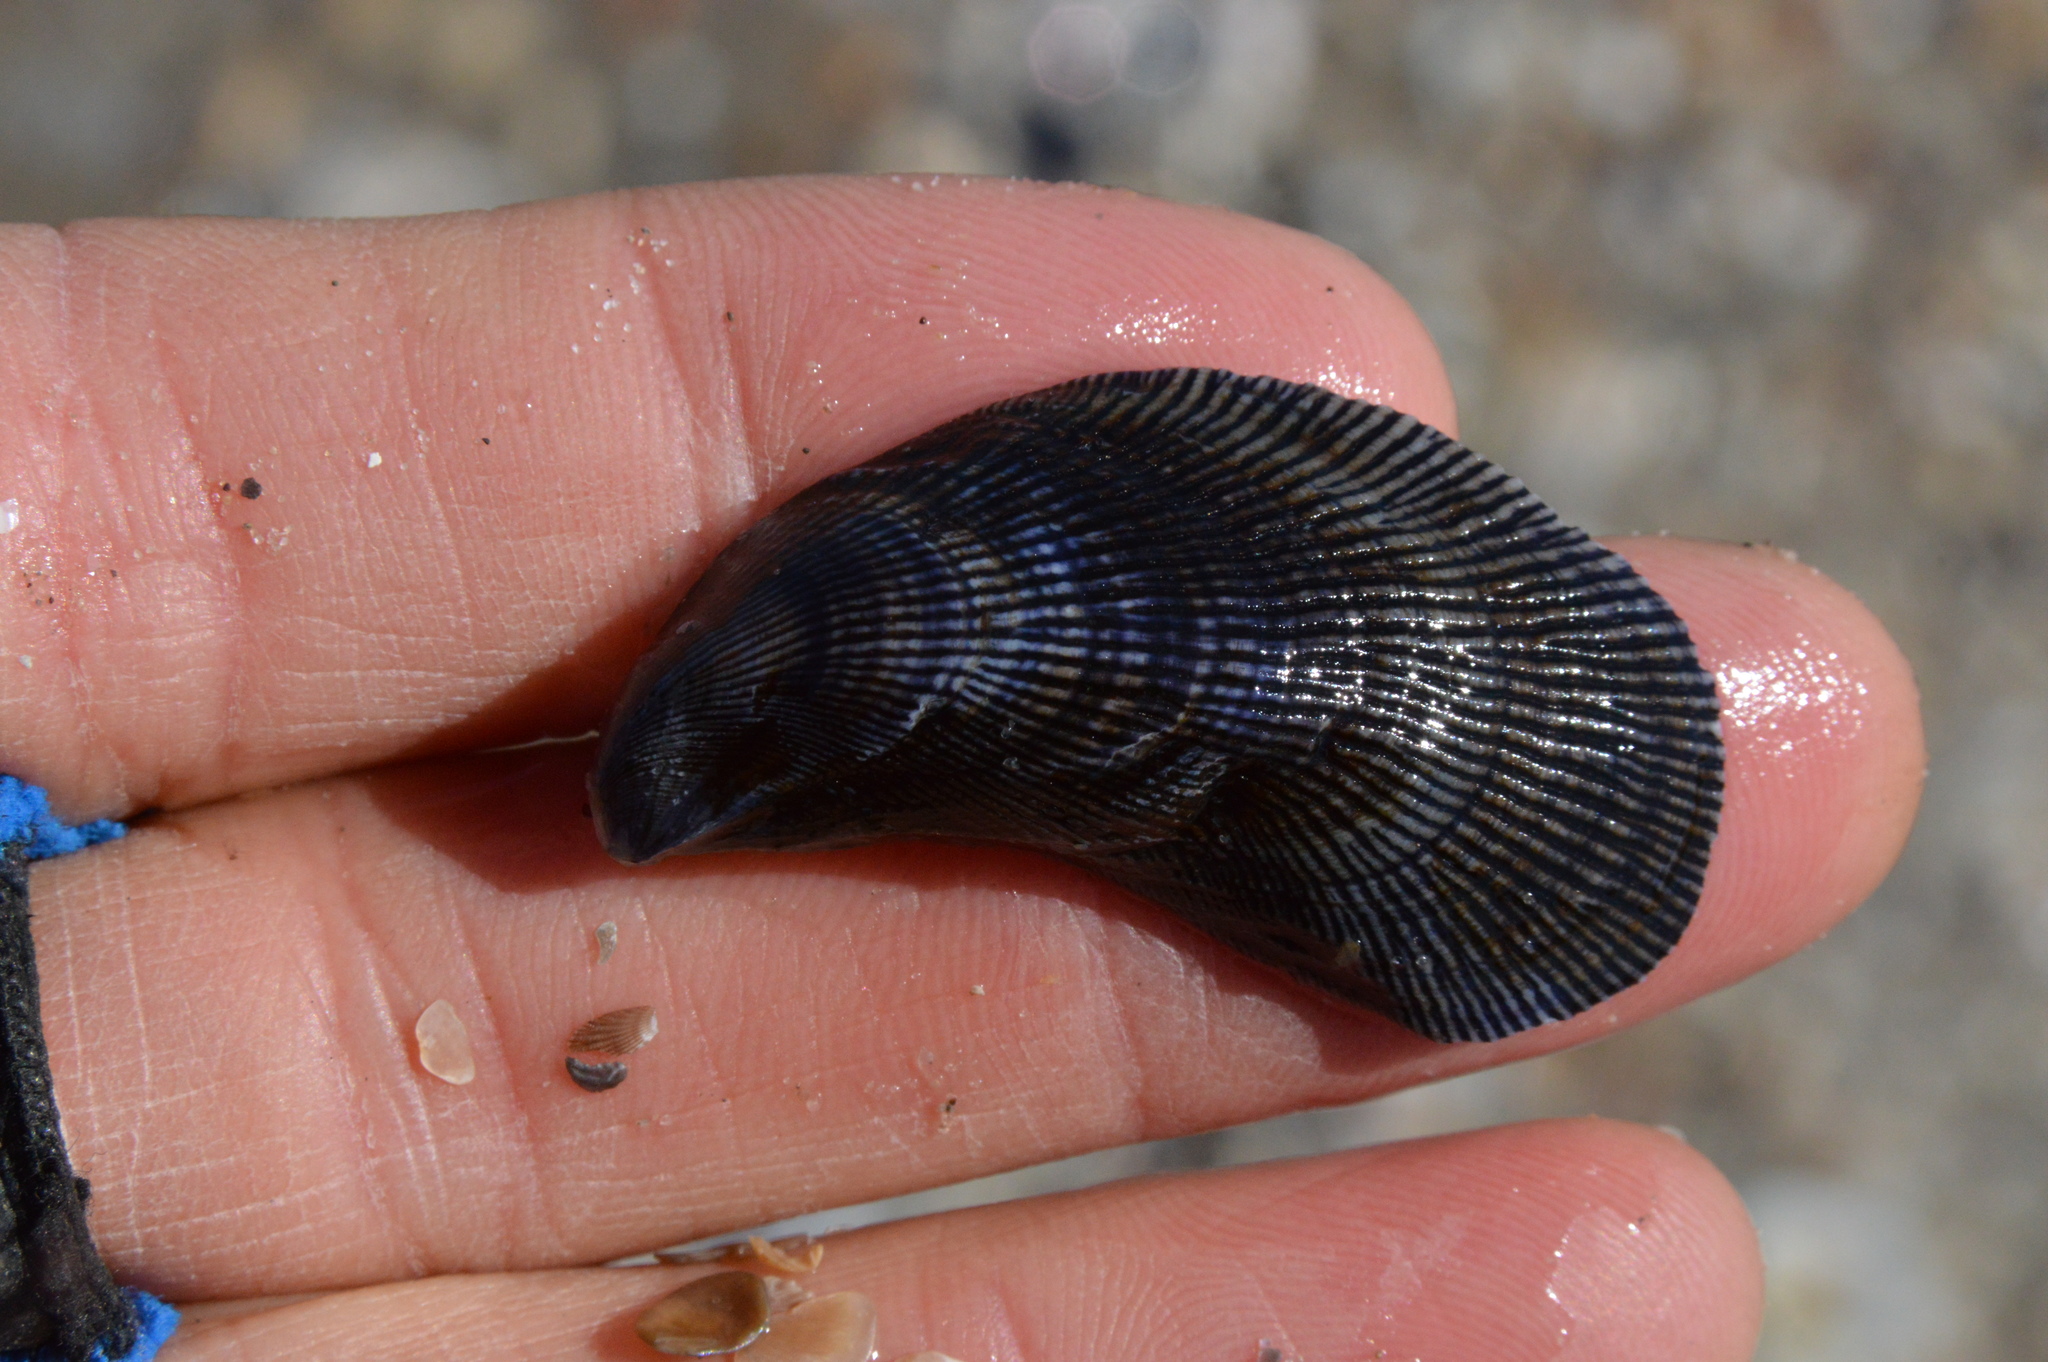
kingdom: Animalia
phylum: Mollusca
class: Bivalvia
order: Mytilida
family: Mytilidae
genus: Ischadium
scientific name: Ischadium recurvum
